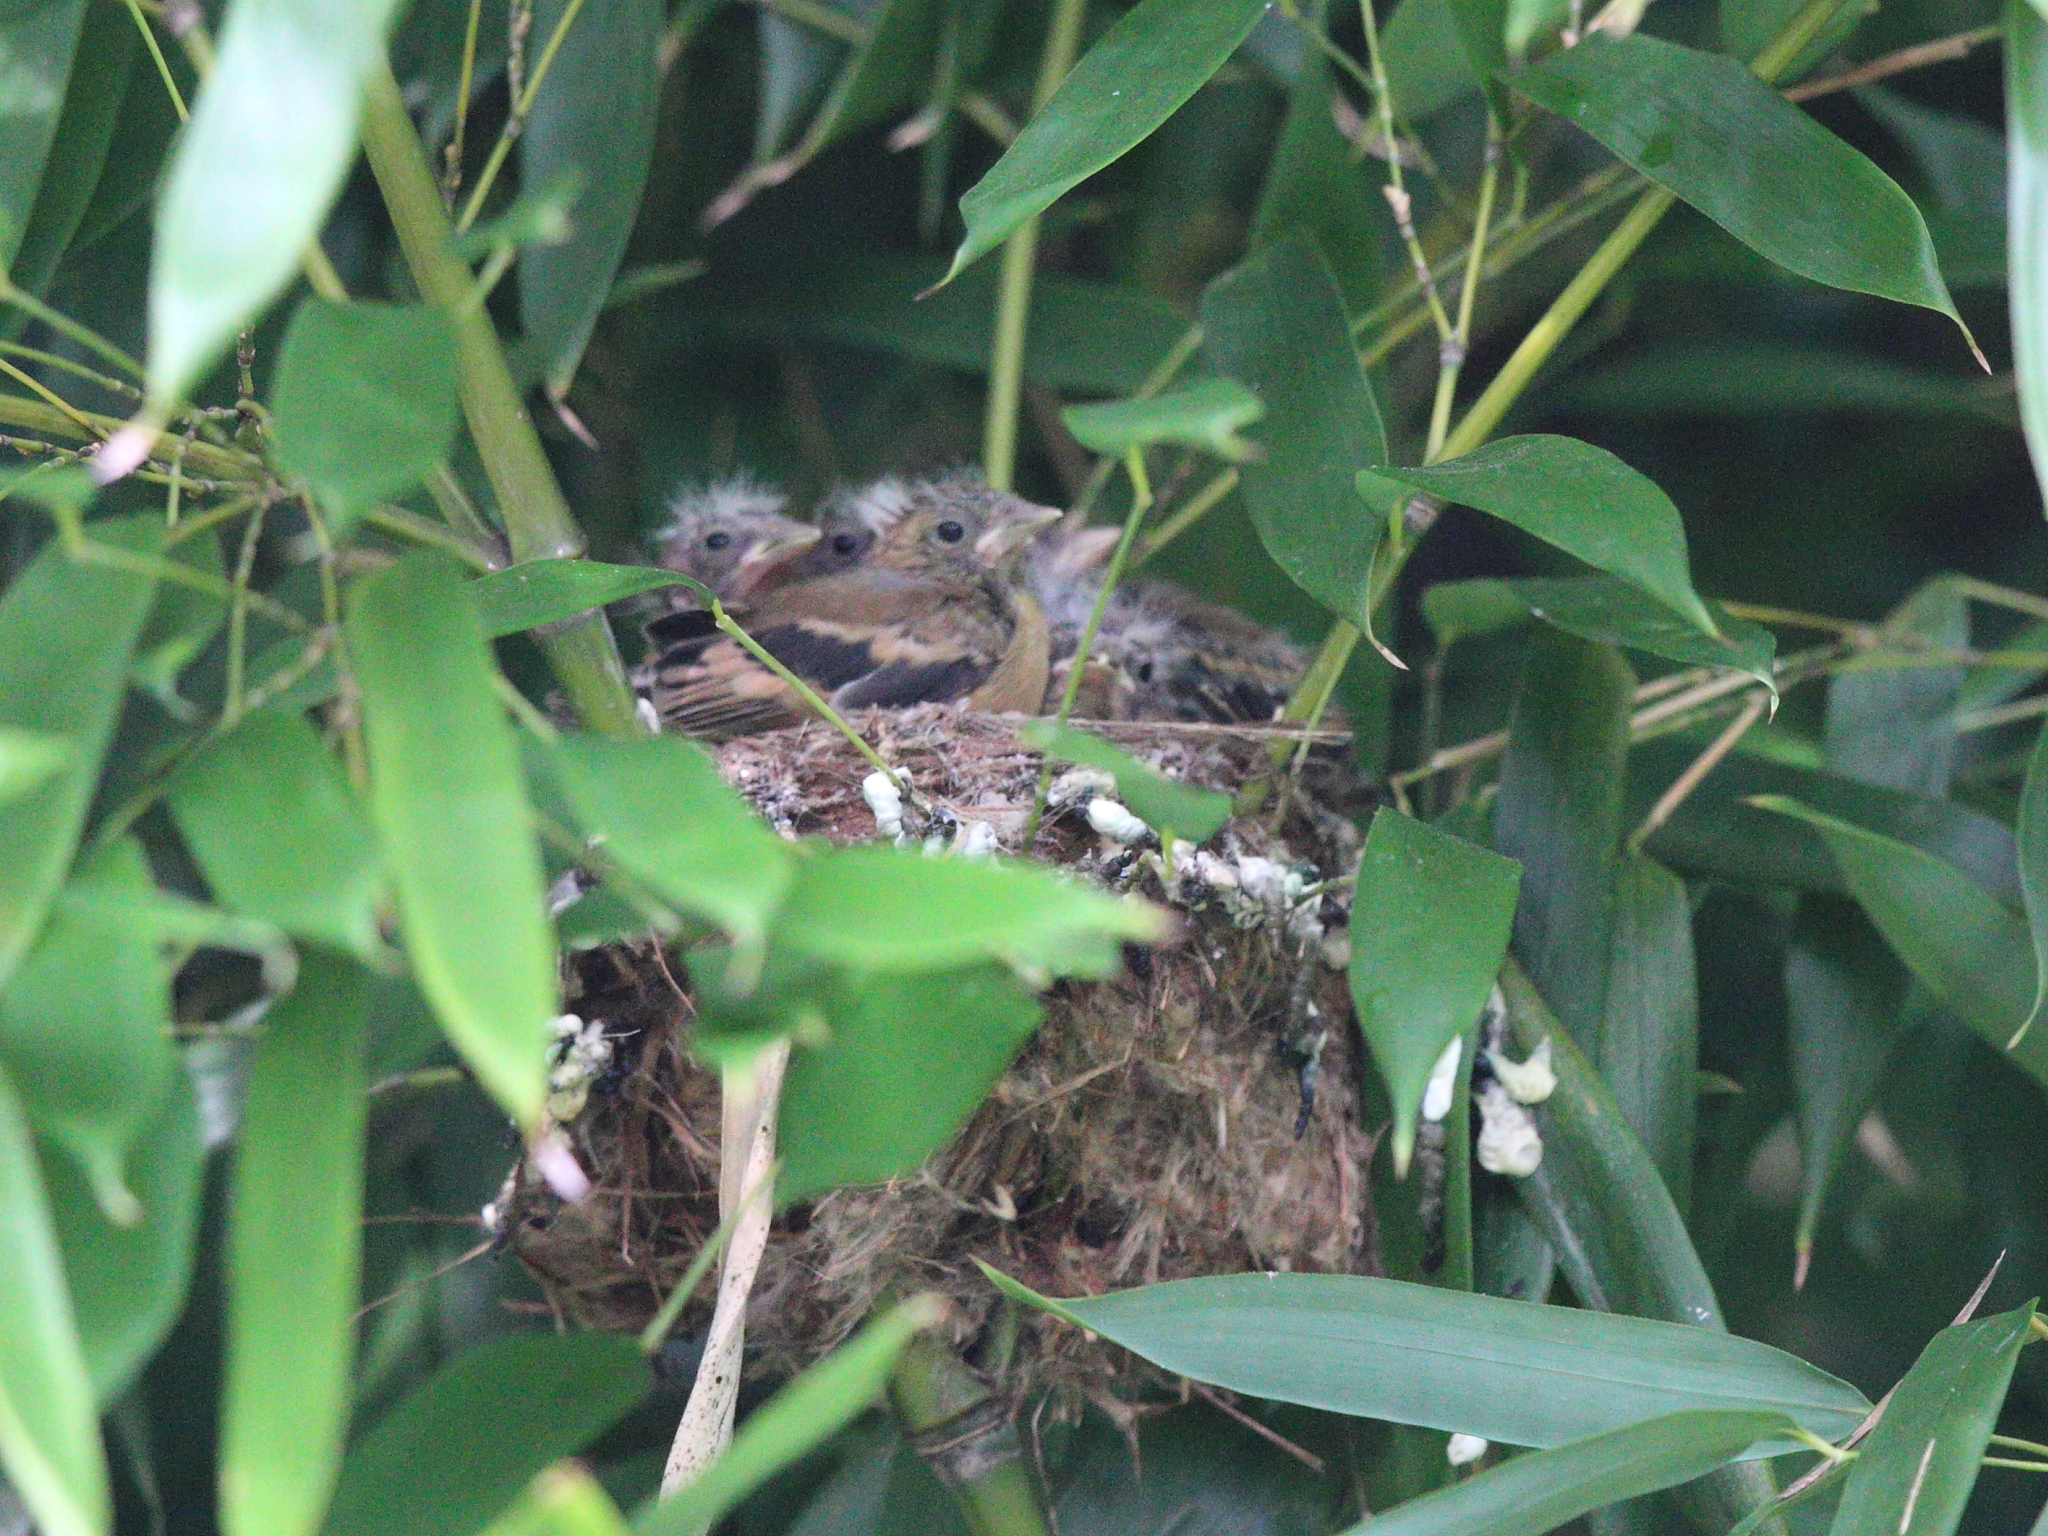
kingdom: Animalia
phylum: Chordata
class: Aves
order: Passeriformes
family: Fringillidae
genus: Spinus
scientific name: Spinus tristis
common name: American goldfinch
